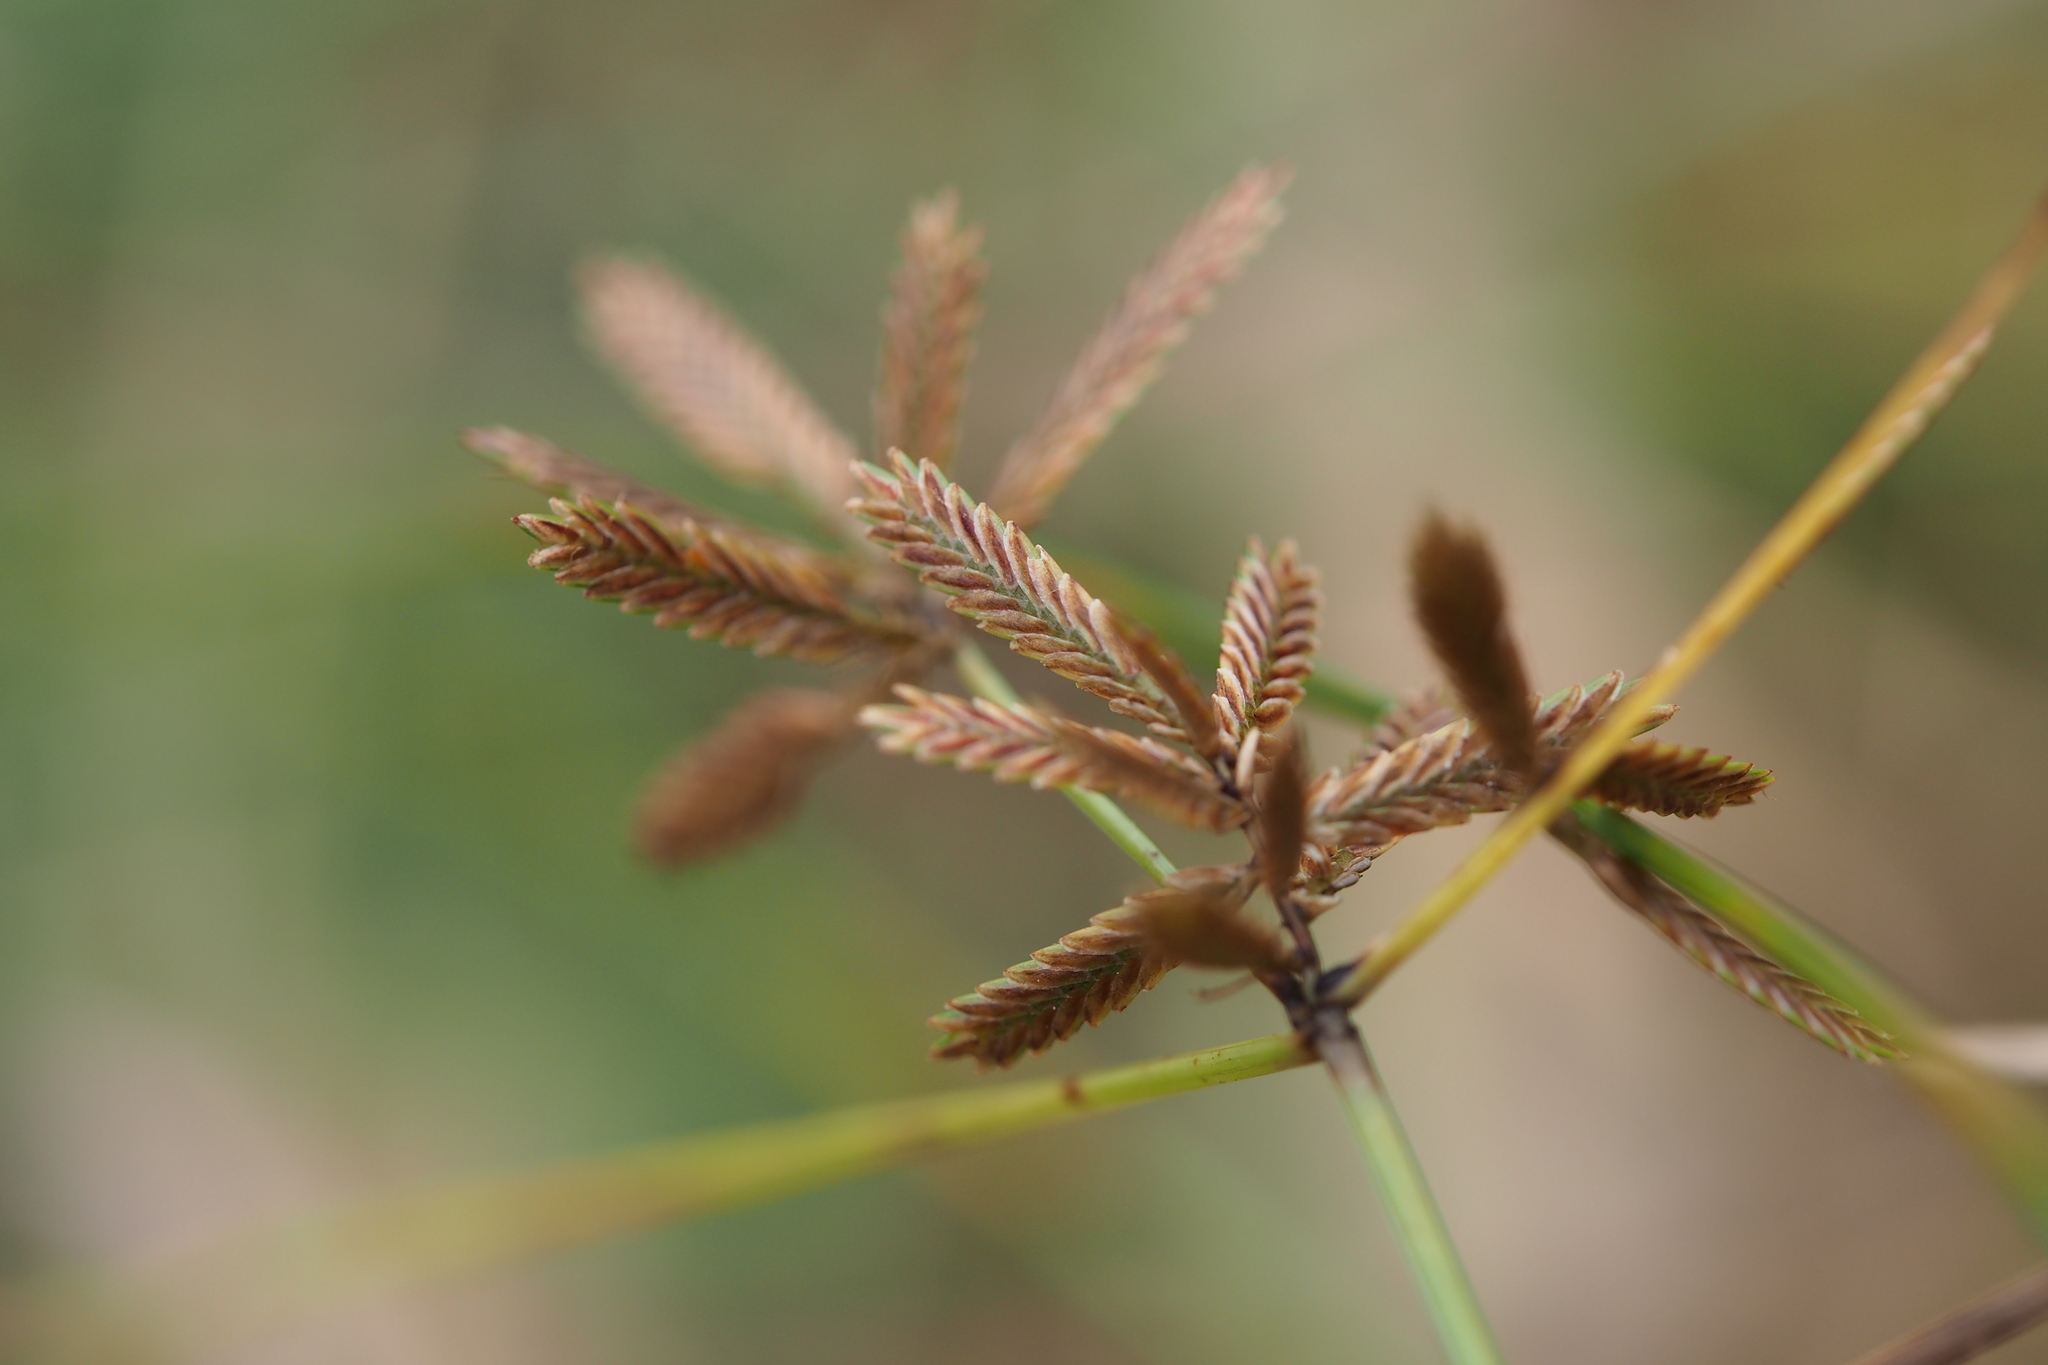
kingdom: Plantae
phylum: Tracheophyta
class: Liliopsida
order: Poales
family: Cyperaceae
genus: Cyperus
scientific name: Cyperus flavidus
